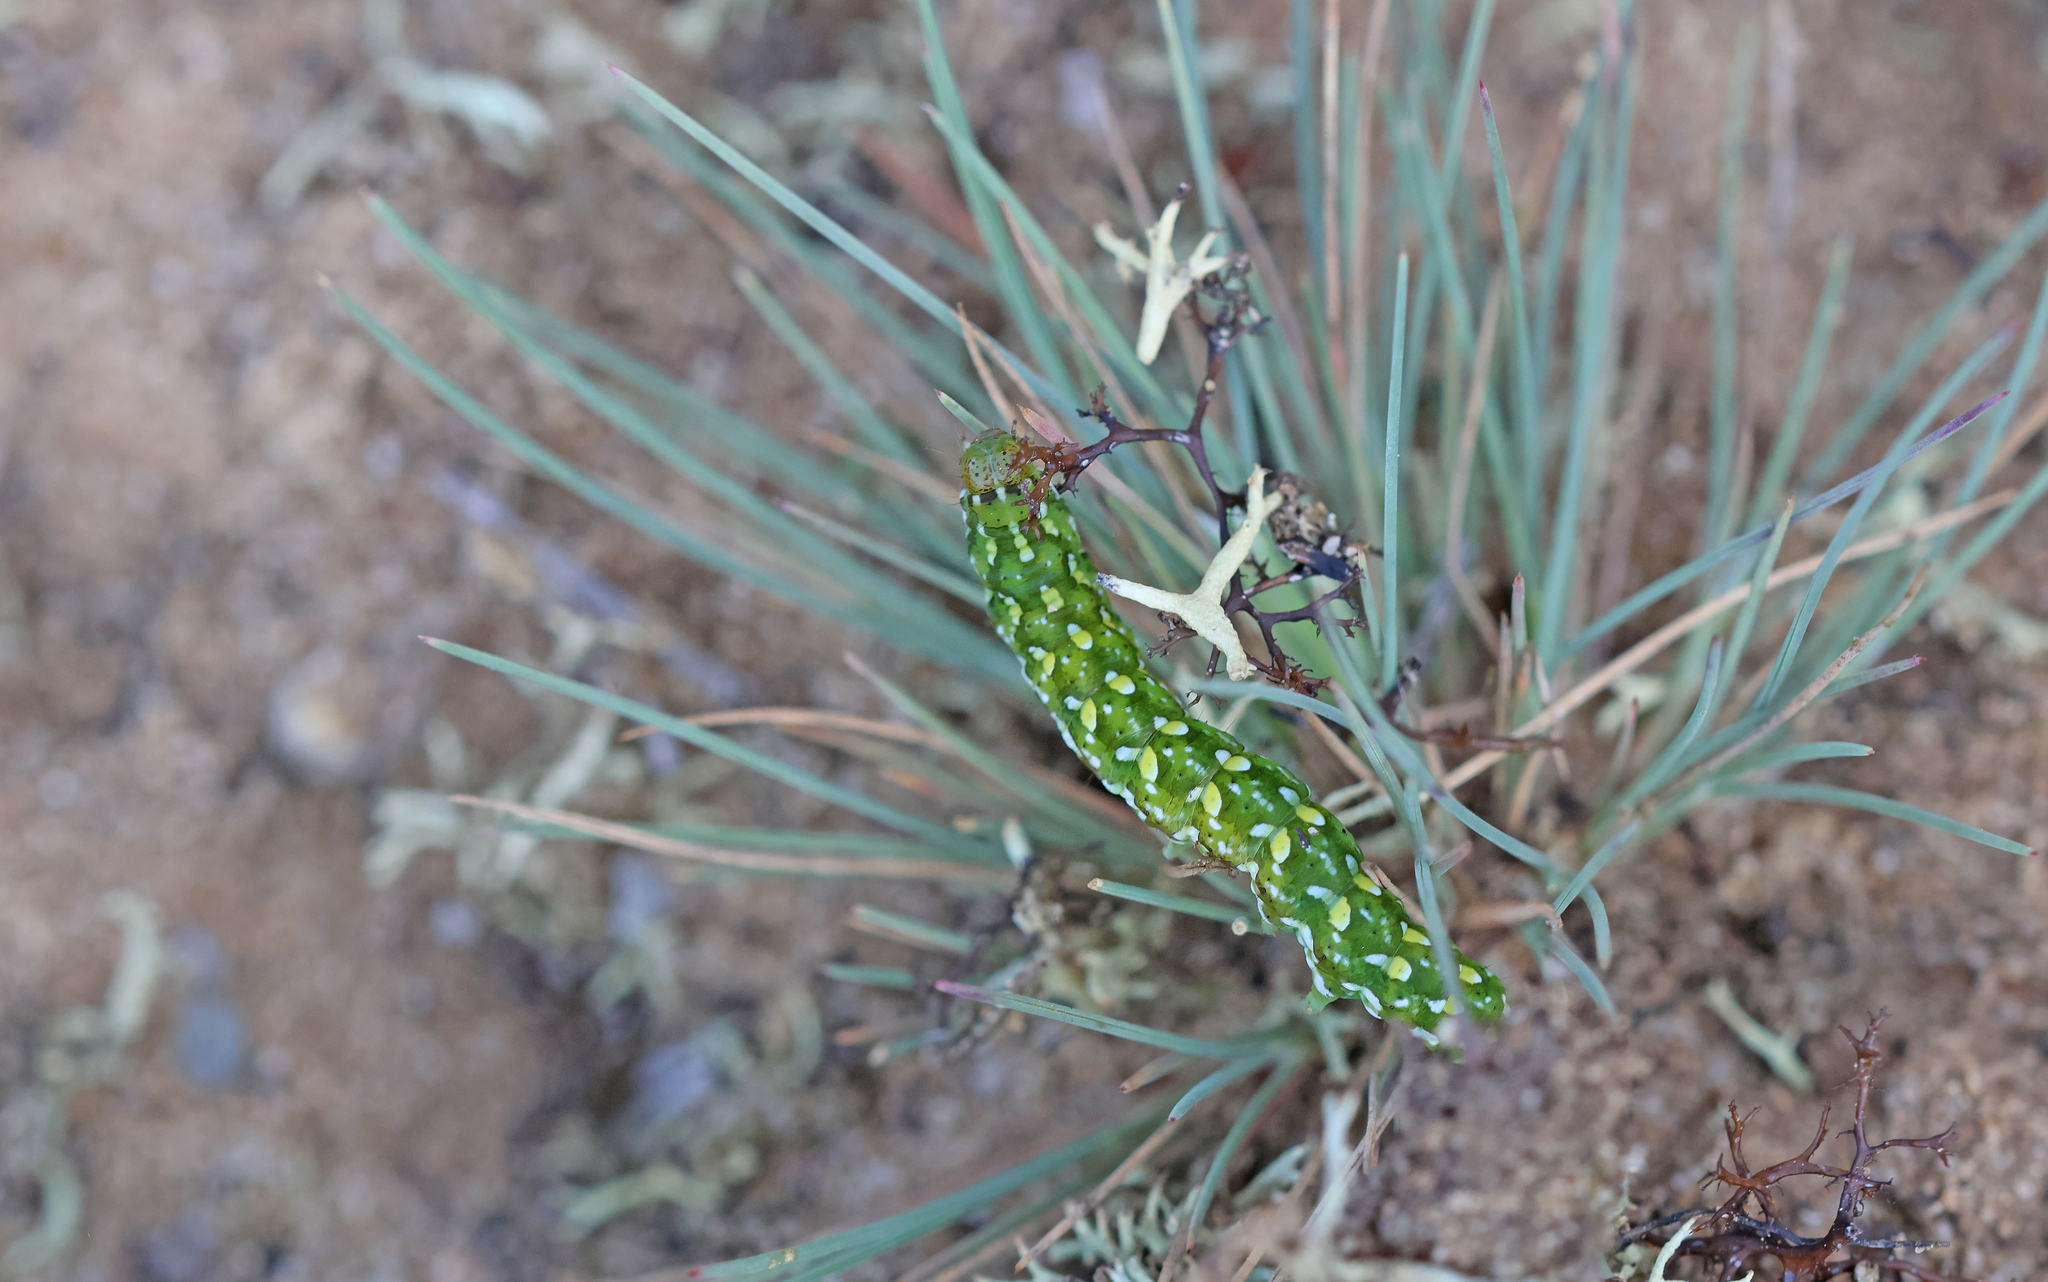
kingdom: Animalia
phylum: Arthropoda
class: Insecta
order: Lepidoptera
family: Noctuidae
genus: Anarta
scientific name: Anarta myrtilli
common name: Beautiful yellow underwing
